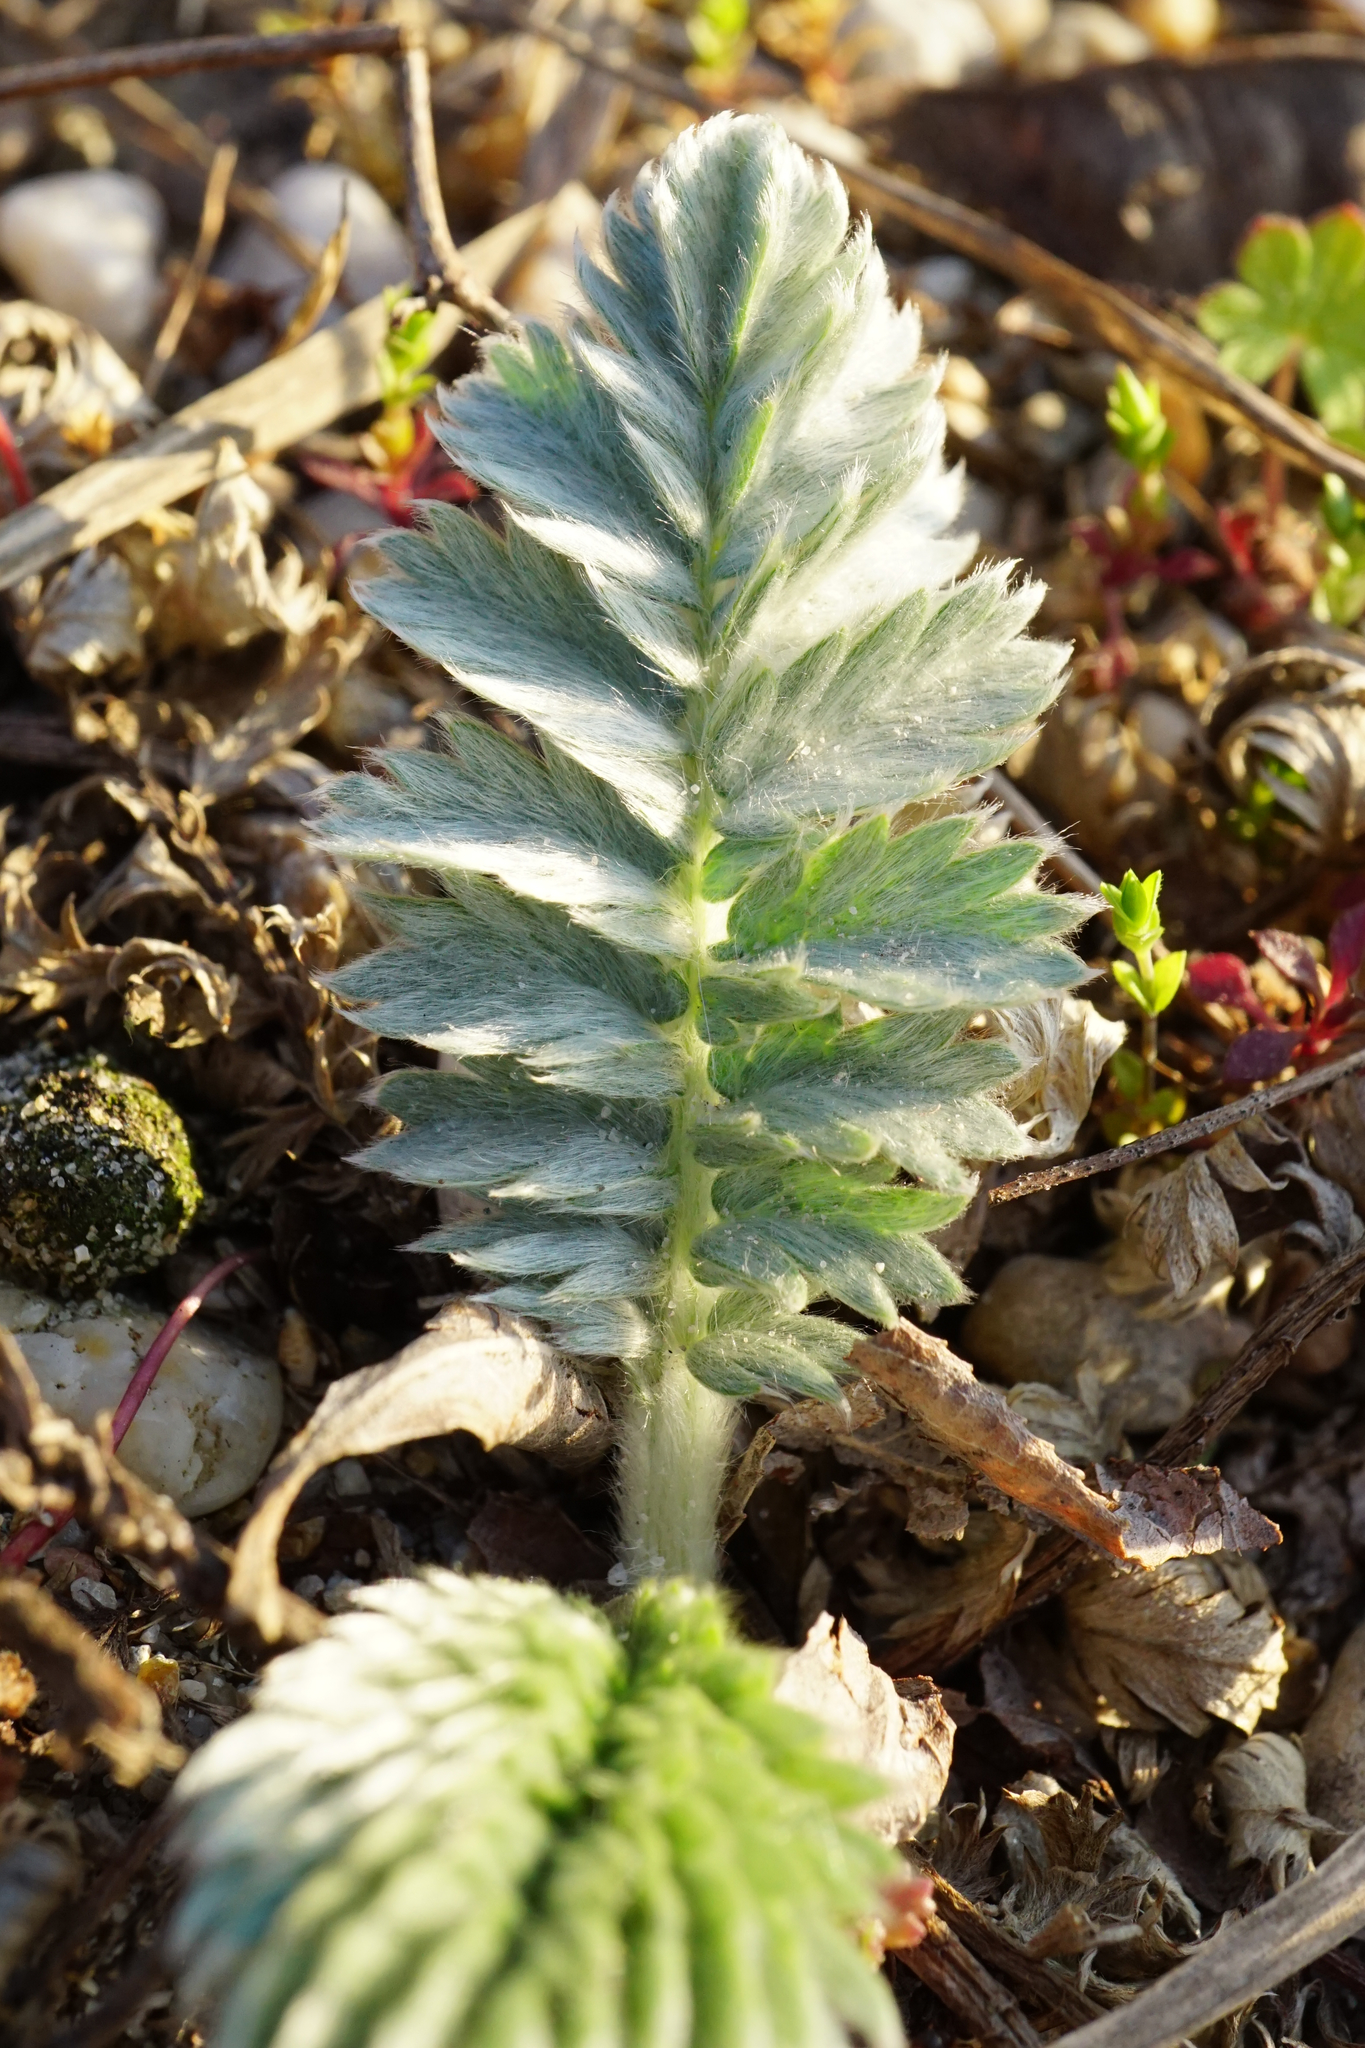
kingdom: Plantae
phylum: Tracheophyta
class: Magnoliopsida
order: Rosales
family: Rosaceae
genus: Argentina
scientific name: Argentina anserina
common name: Common silverweed
